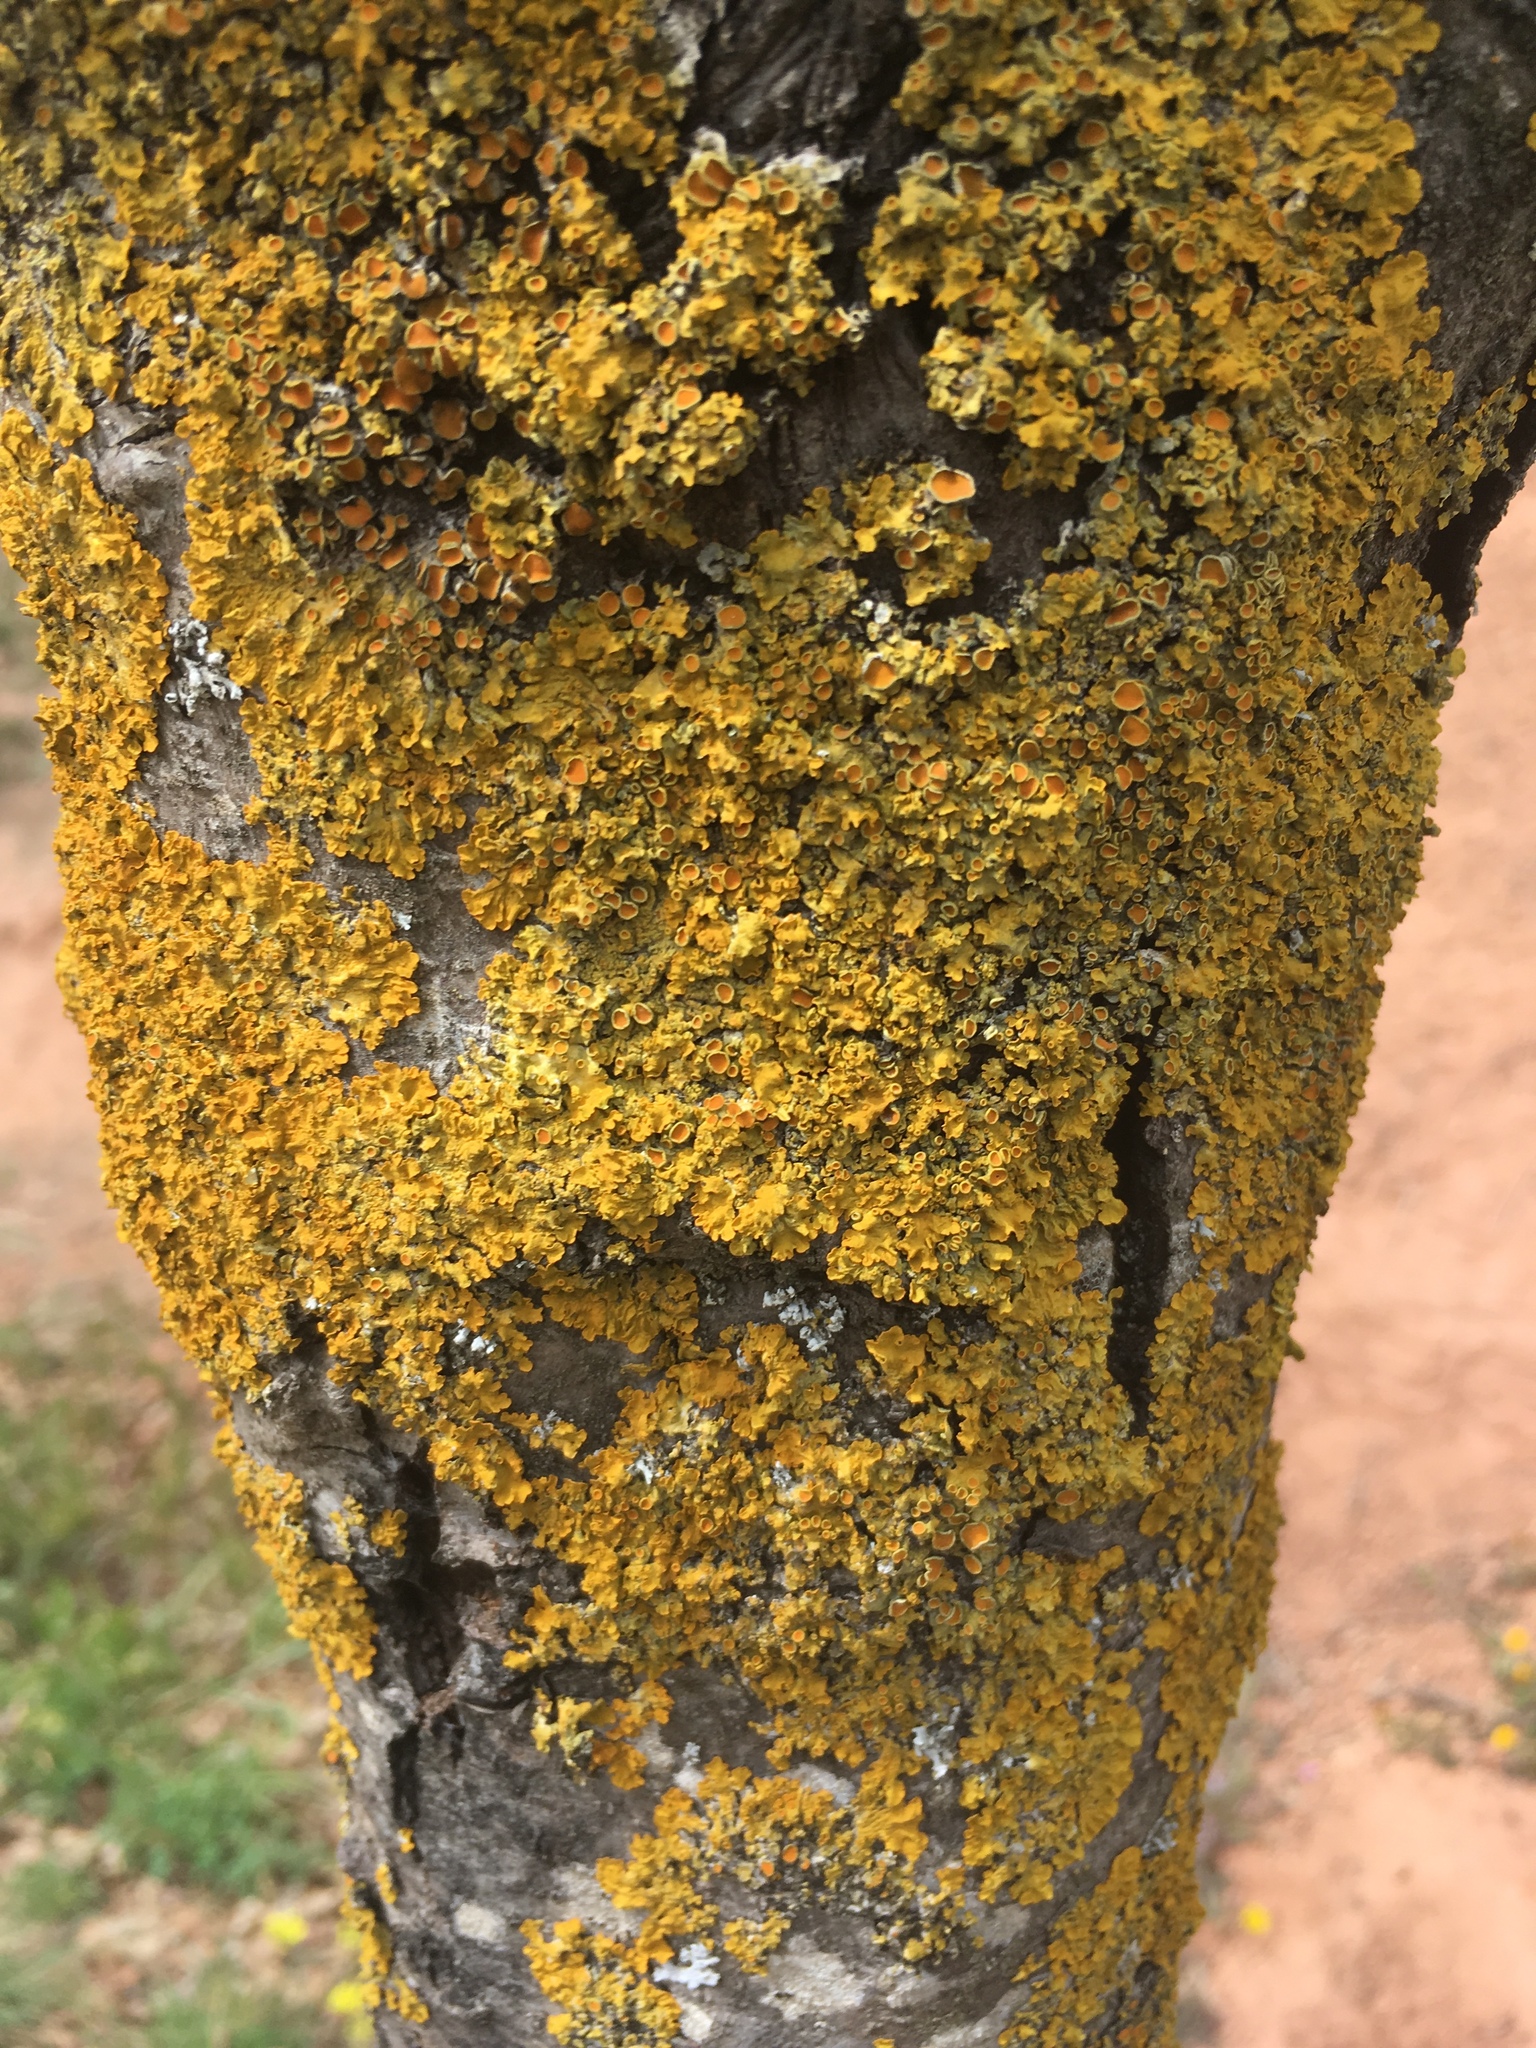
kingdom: Fungi
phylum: Ascomycota
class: Lecanoromycetes
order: Teloschistales
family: Teloschistaceae
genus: Xanthoria
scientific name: Xanthoria parietina
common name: Common orange lichen
